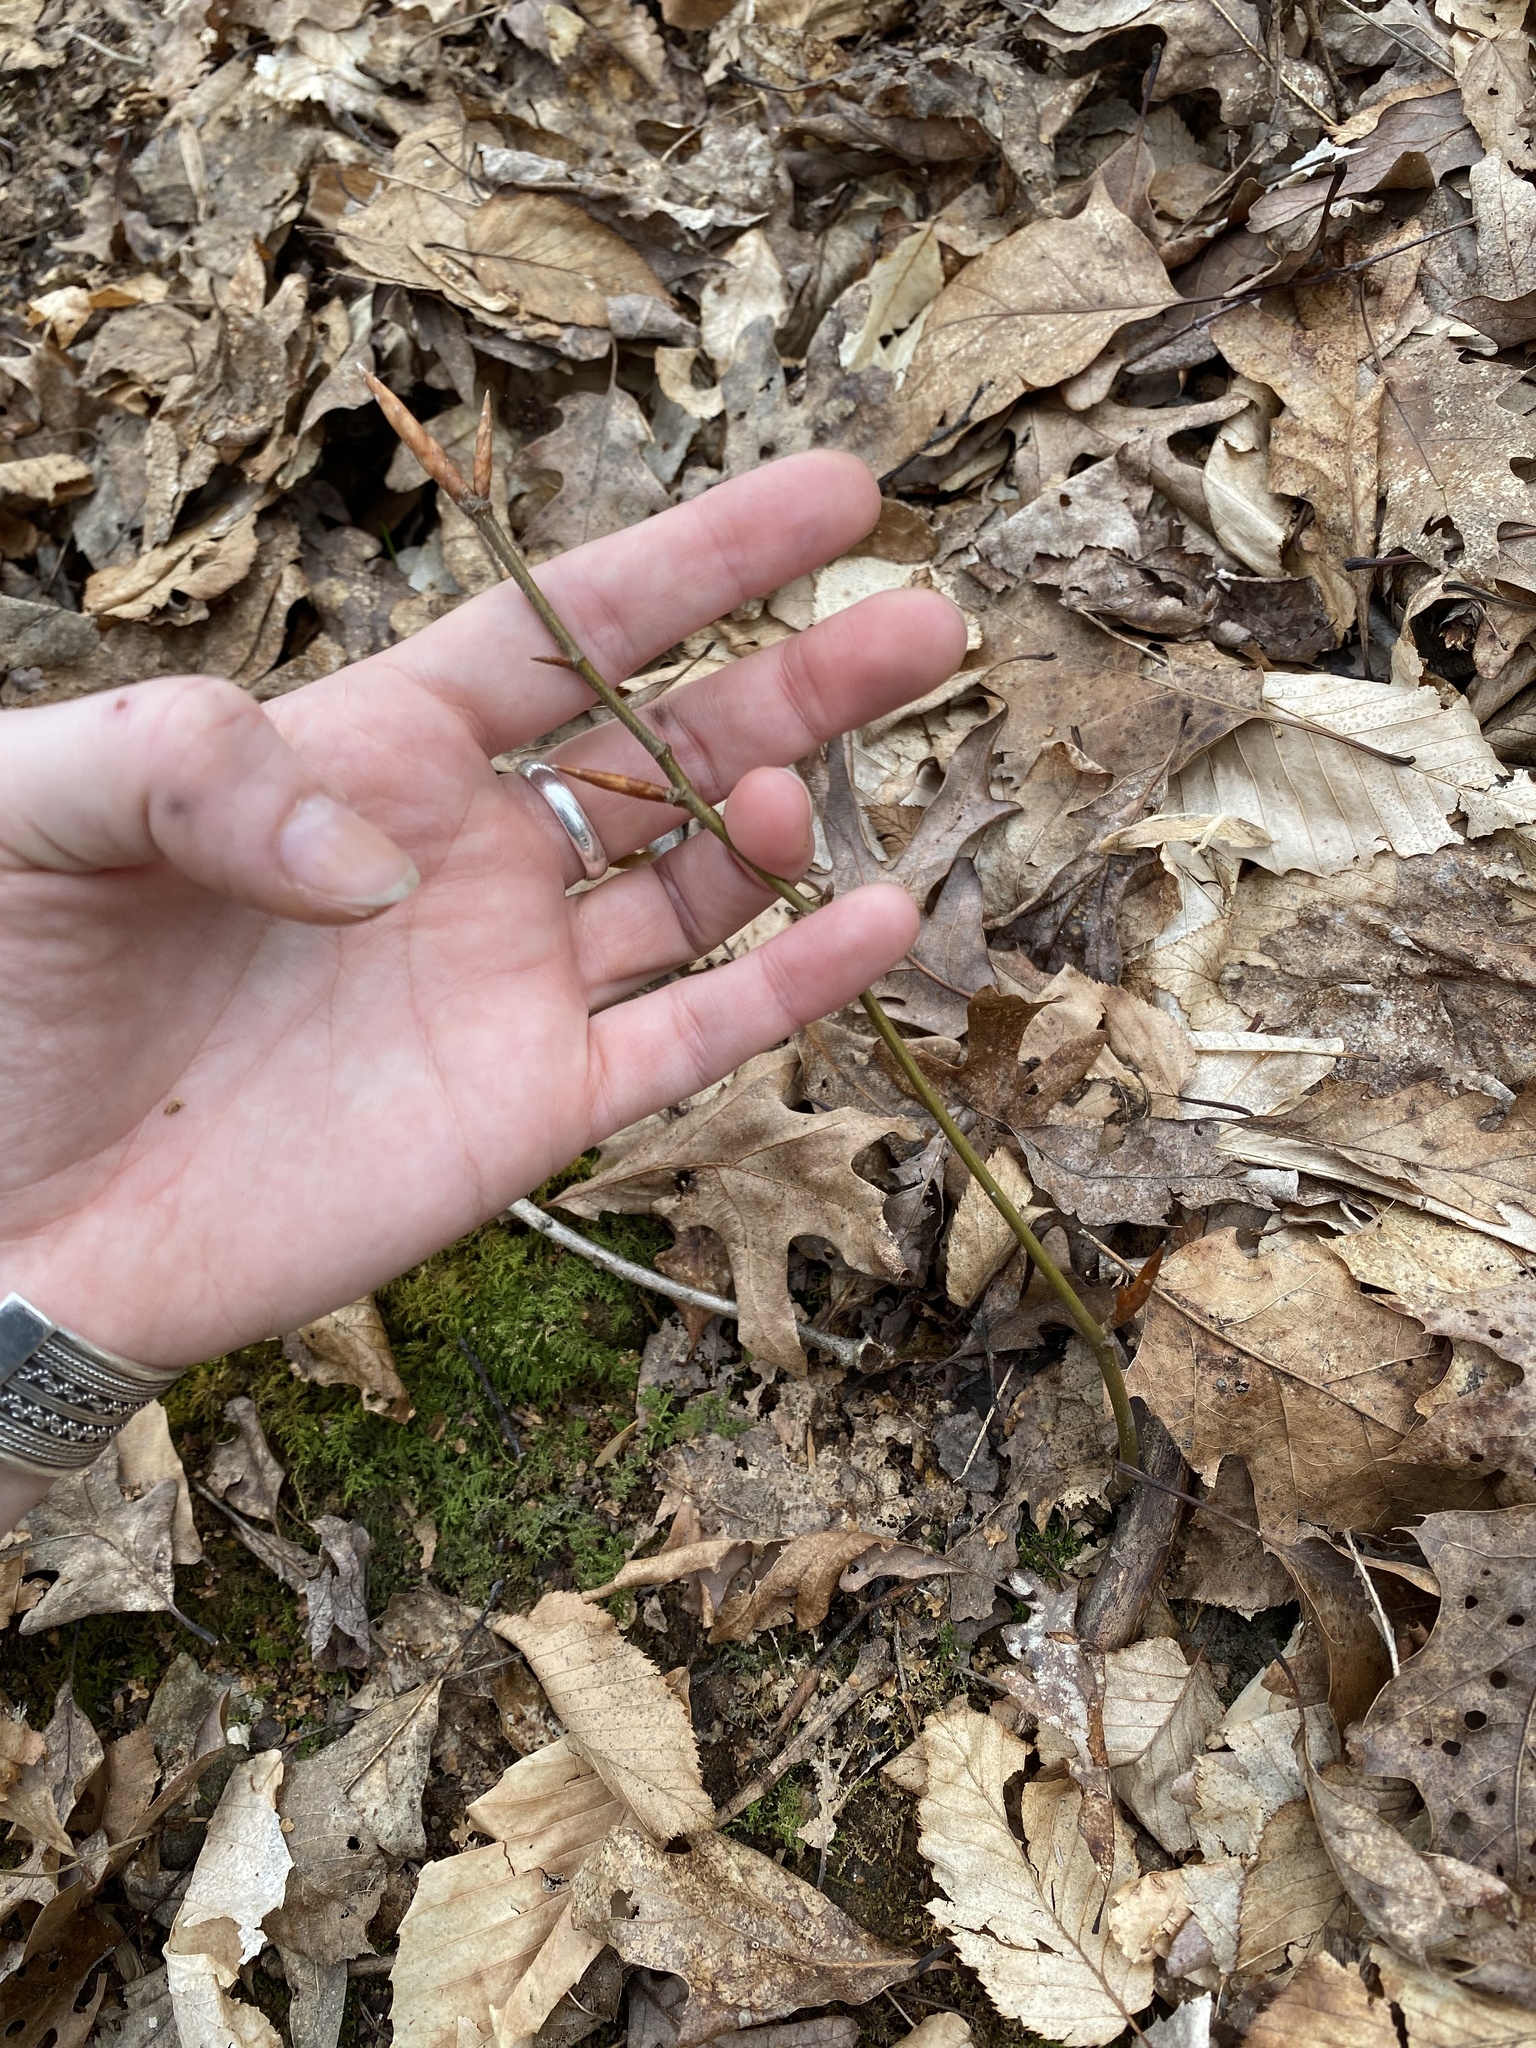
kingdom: Plantae
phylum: Tracheophyta
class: Magnoliopsida
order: Fagales
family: Fagaceae
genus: Fagus
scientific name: Fagus grandifolia
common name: American beech
